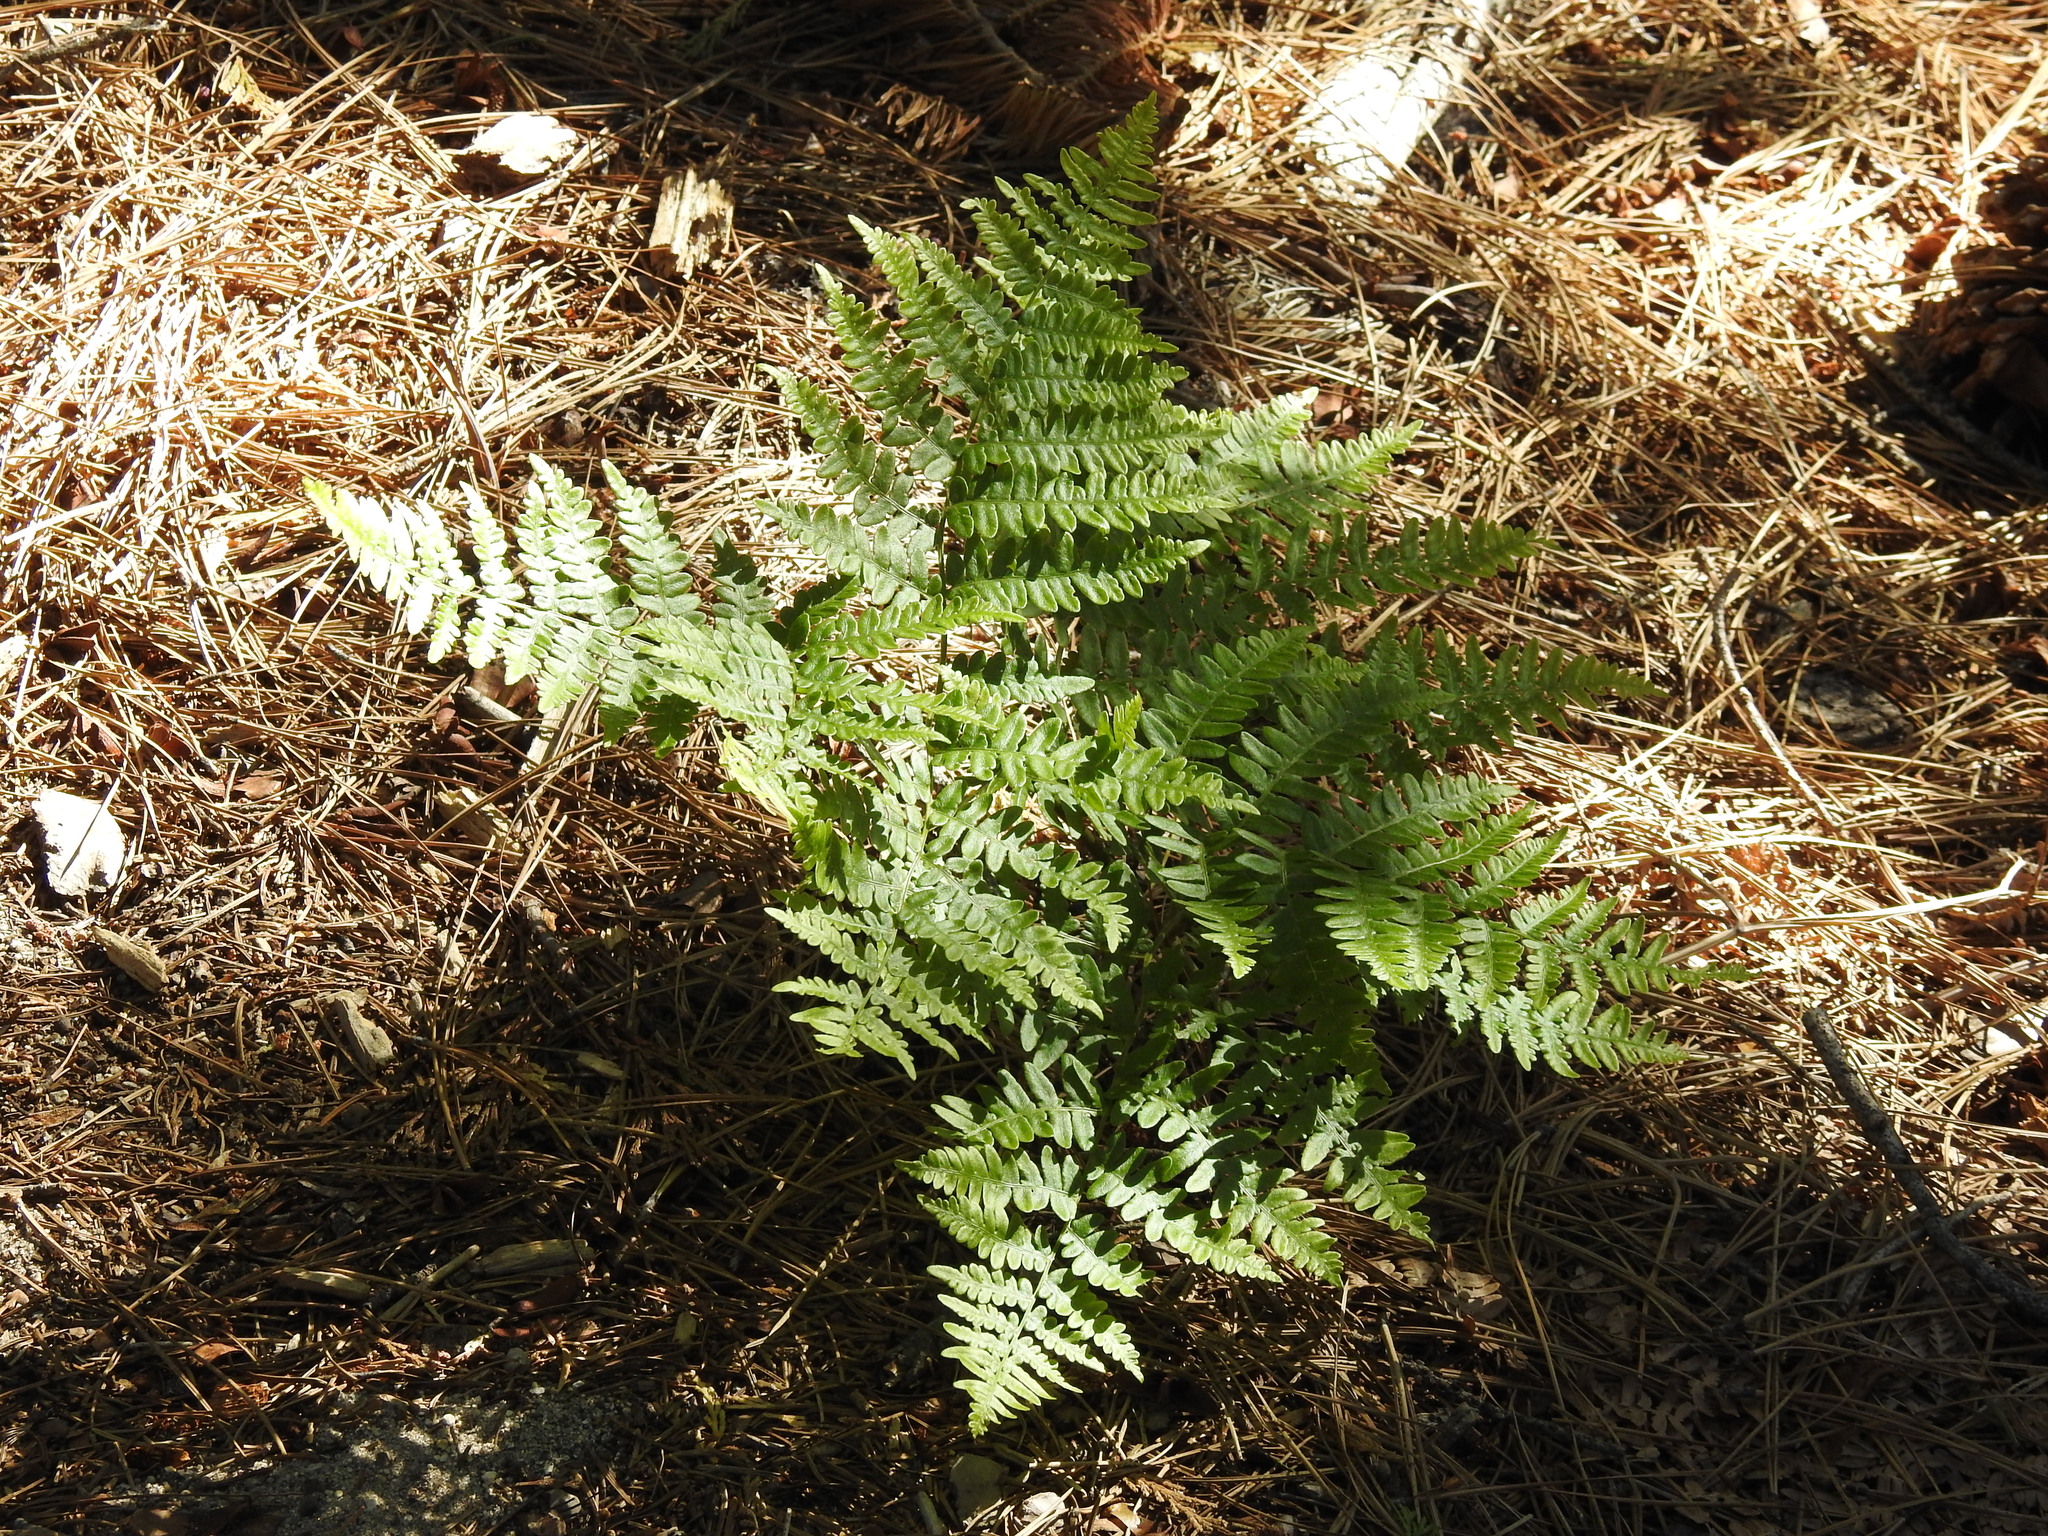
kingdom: Plantae
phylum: Tracheophyta
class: Polypodiopsida
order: Polypodiales
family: Dennstaedtiaceae
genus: Pteridium
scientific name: Pteridium aquilinum
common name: Bracken
